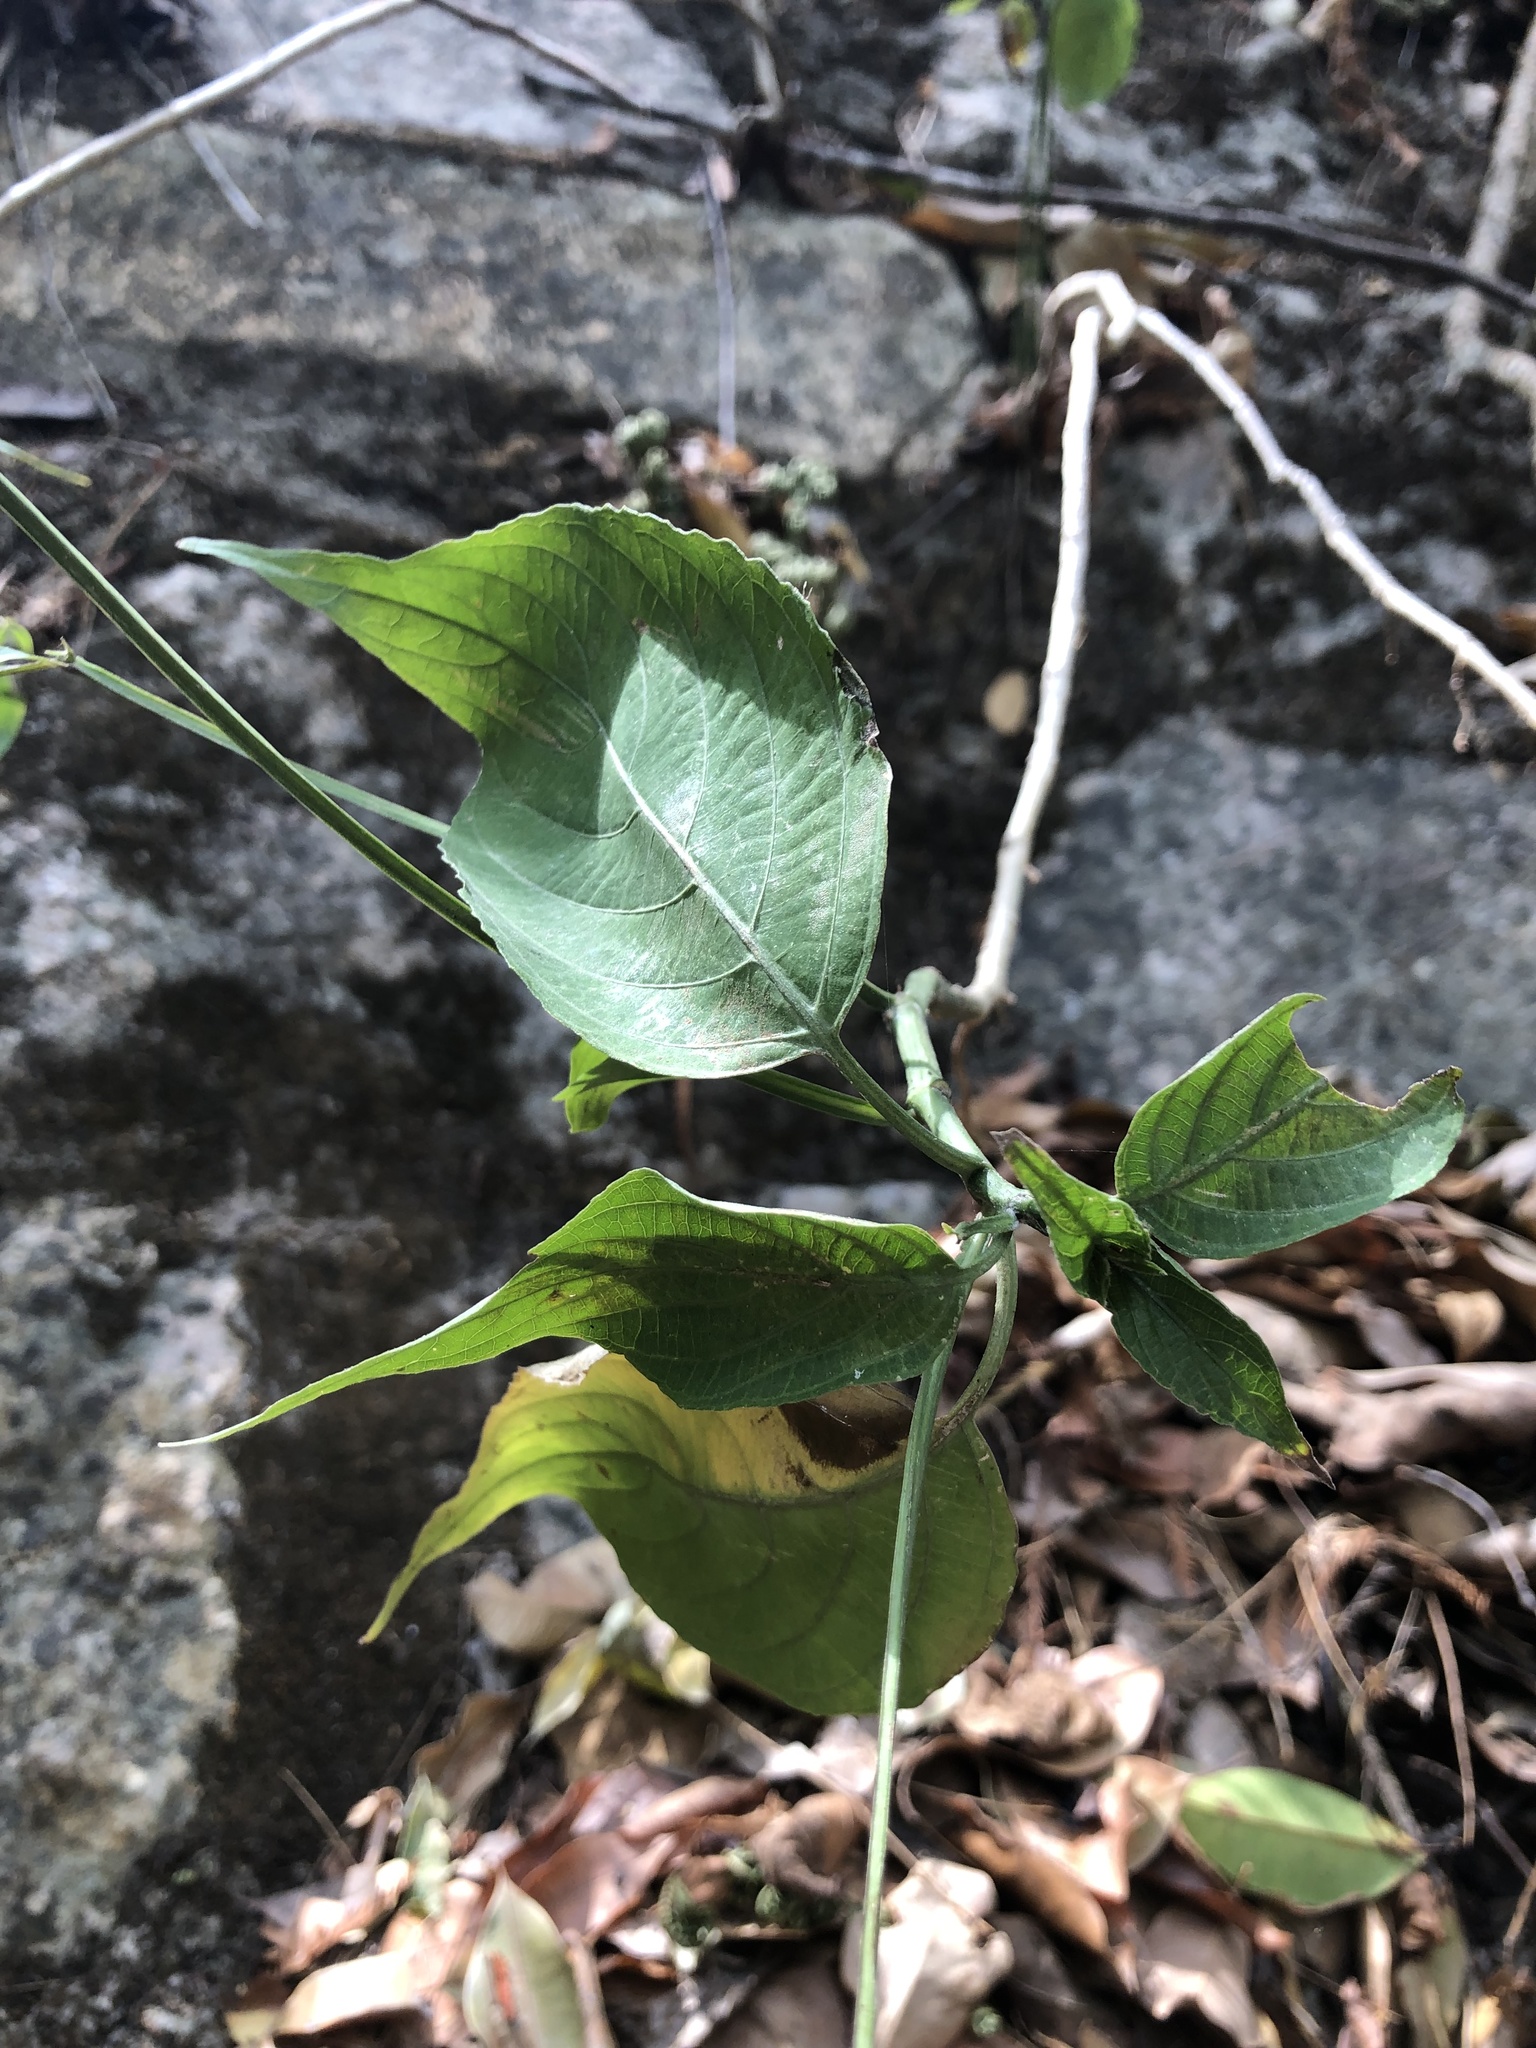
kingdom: Plantae
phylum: Tracheophyta
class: Magnoliopsida
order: Lamiales
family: Acanthaceae
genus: Ruellia
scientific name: Ruellia breedlovei
